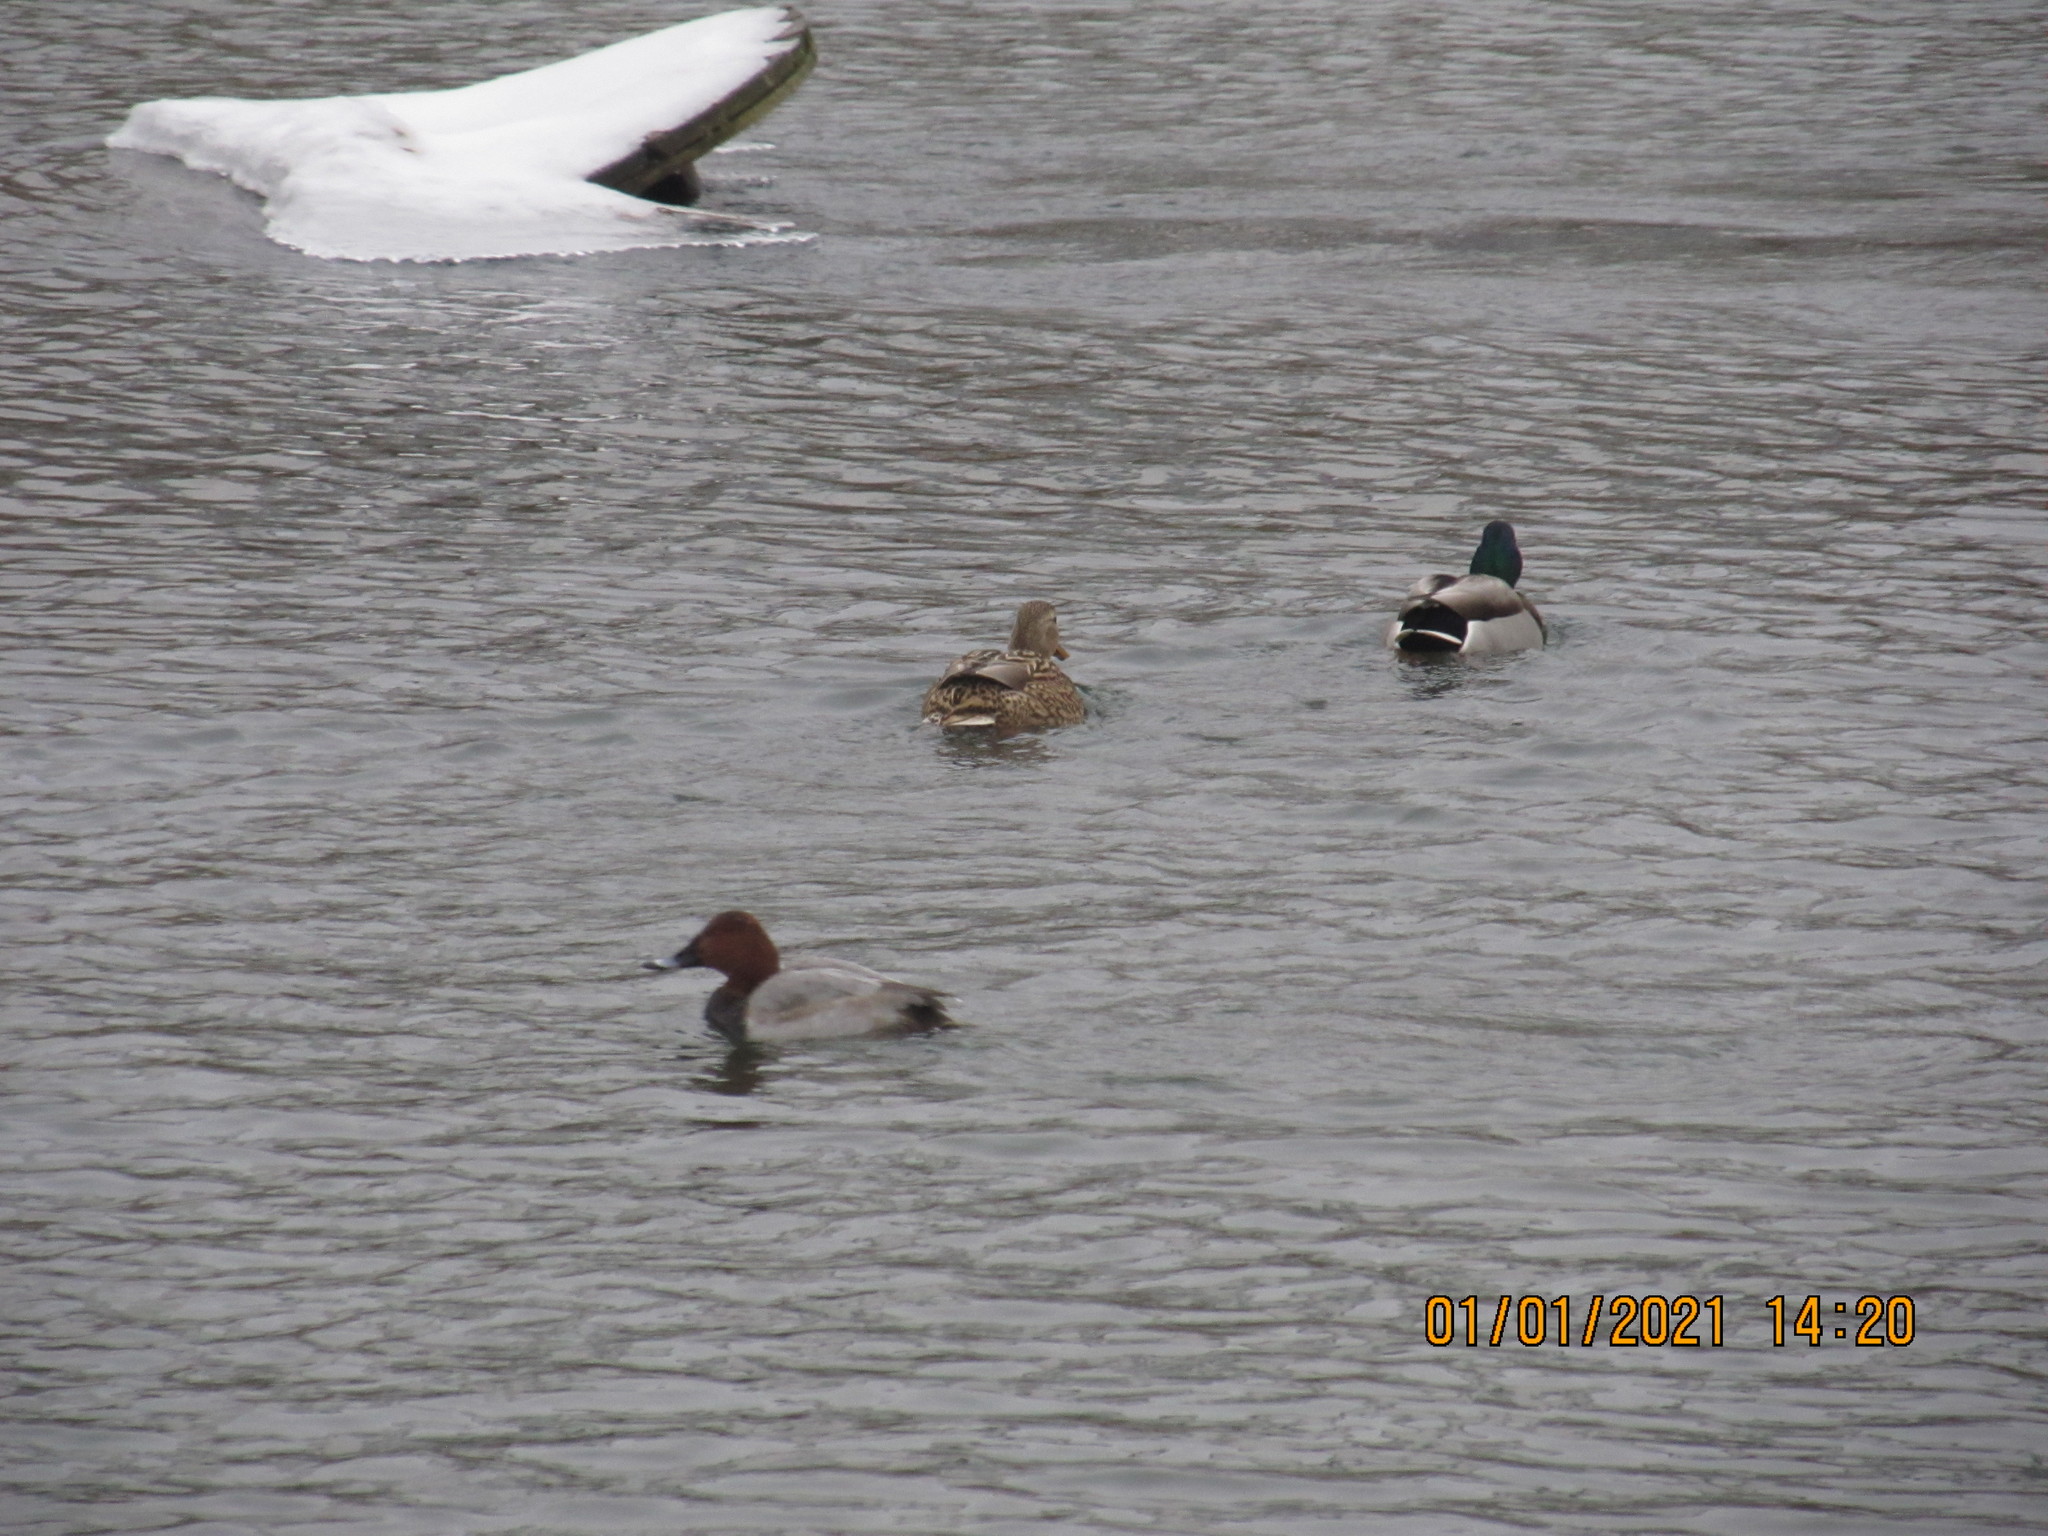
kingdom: Animalia
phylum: Chordata
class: Aves
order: Anseriformes
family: Anatidae
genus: Aythya
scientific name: Aythya ferina
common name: Common pochard
